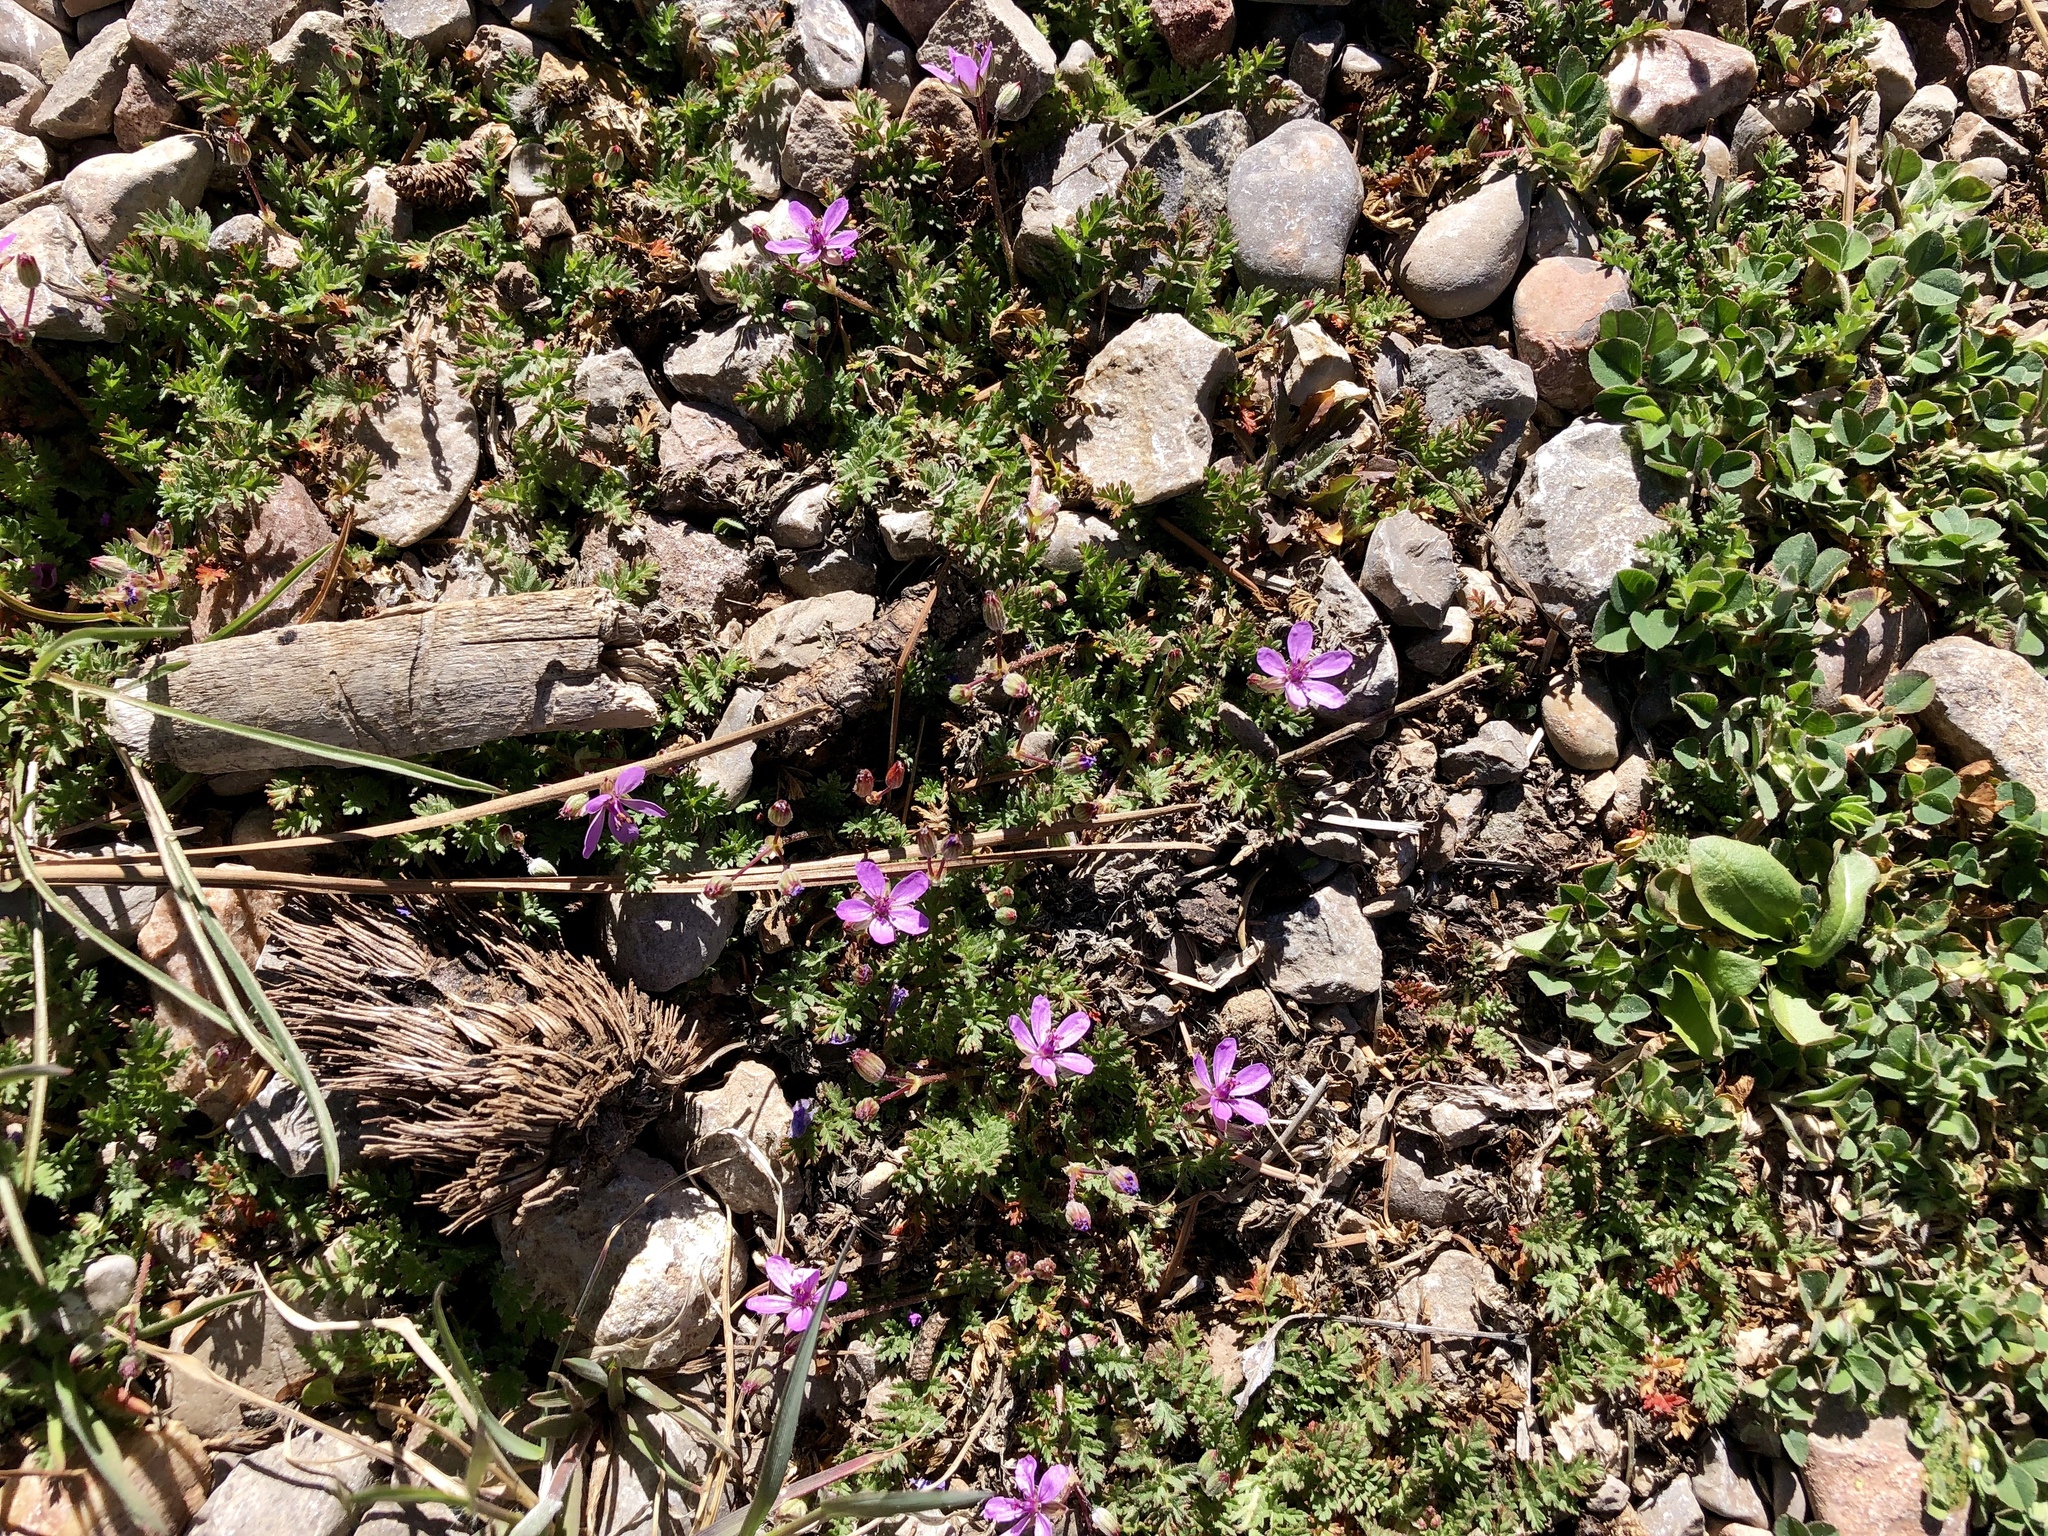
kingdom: Plantae
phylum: Tracheophyta
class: Magnoliopsida
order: Geraniales
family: Geraniaceae
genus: Erodium
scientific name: Erodium cicutarium
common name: Common stork's-bill
